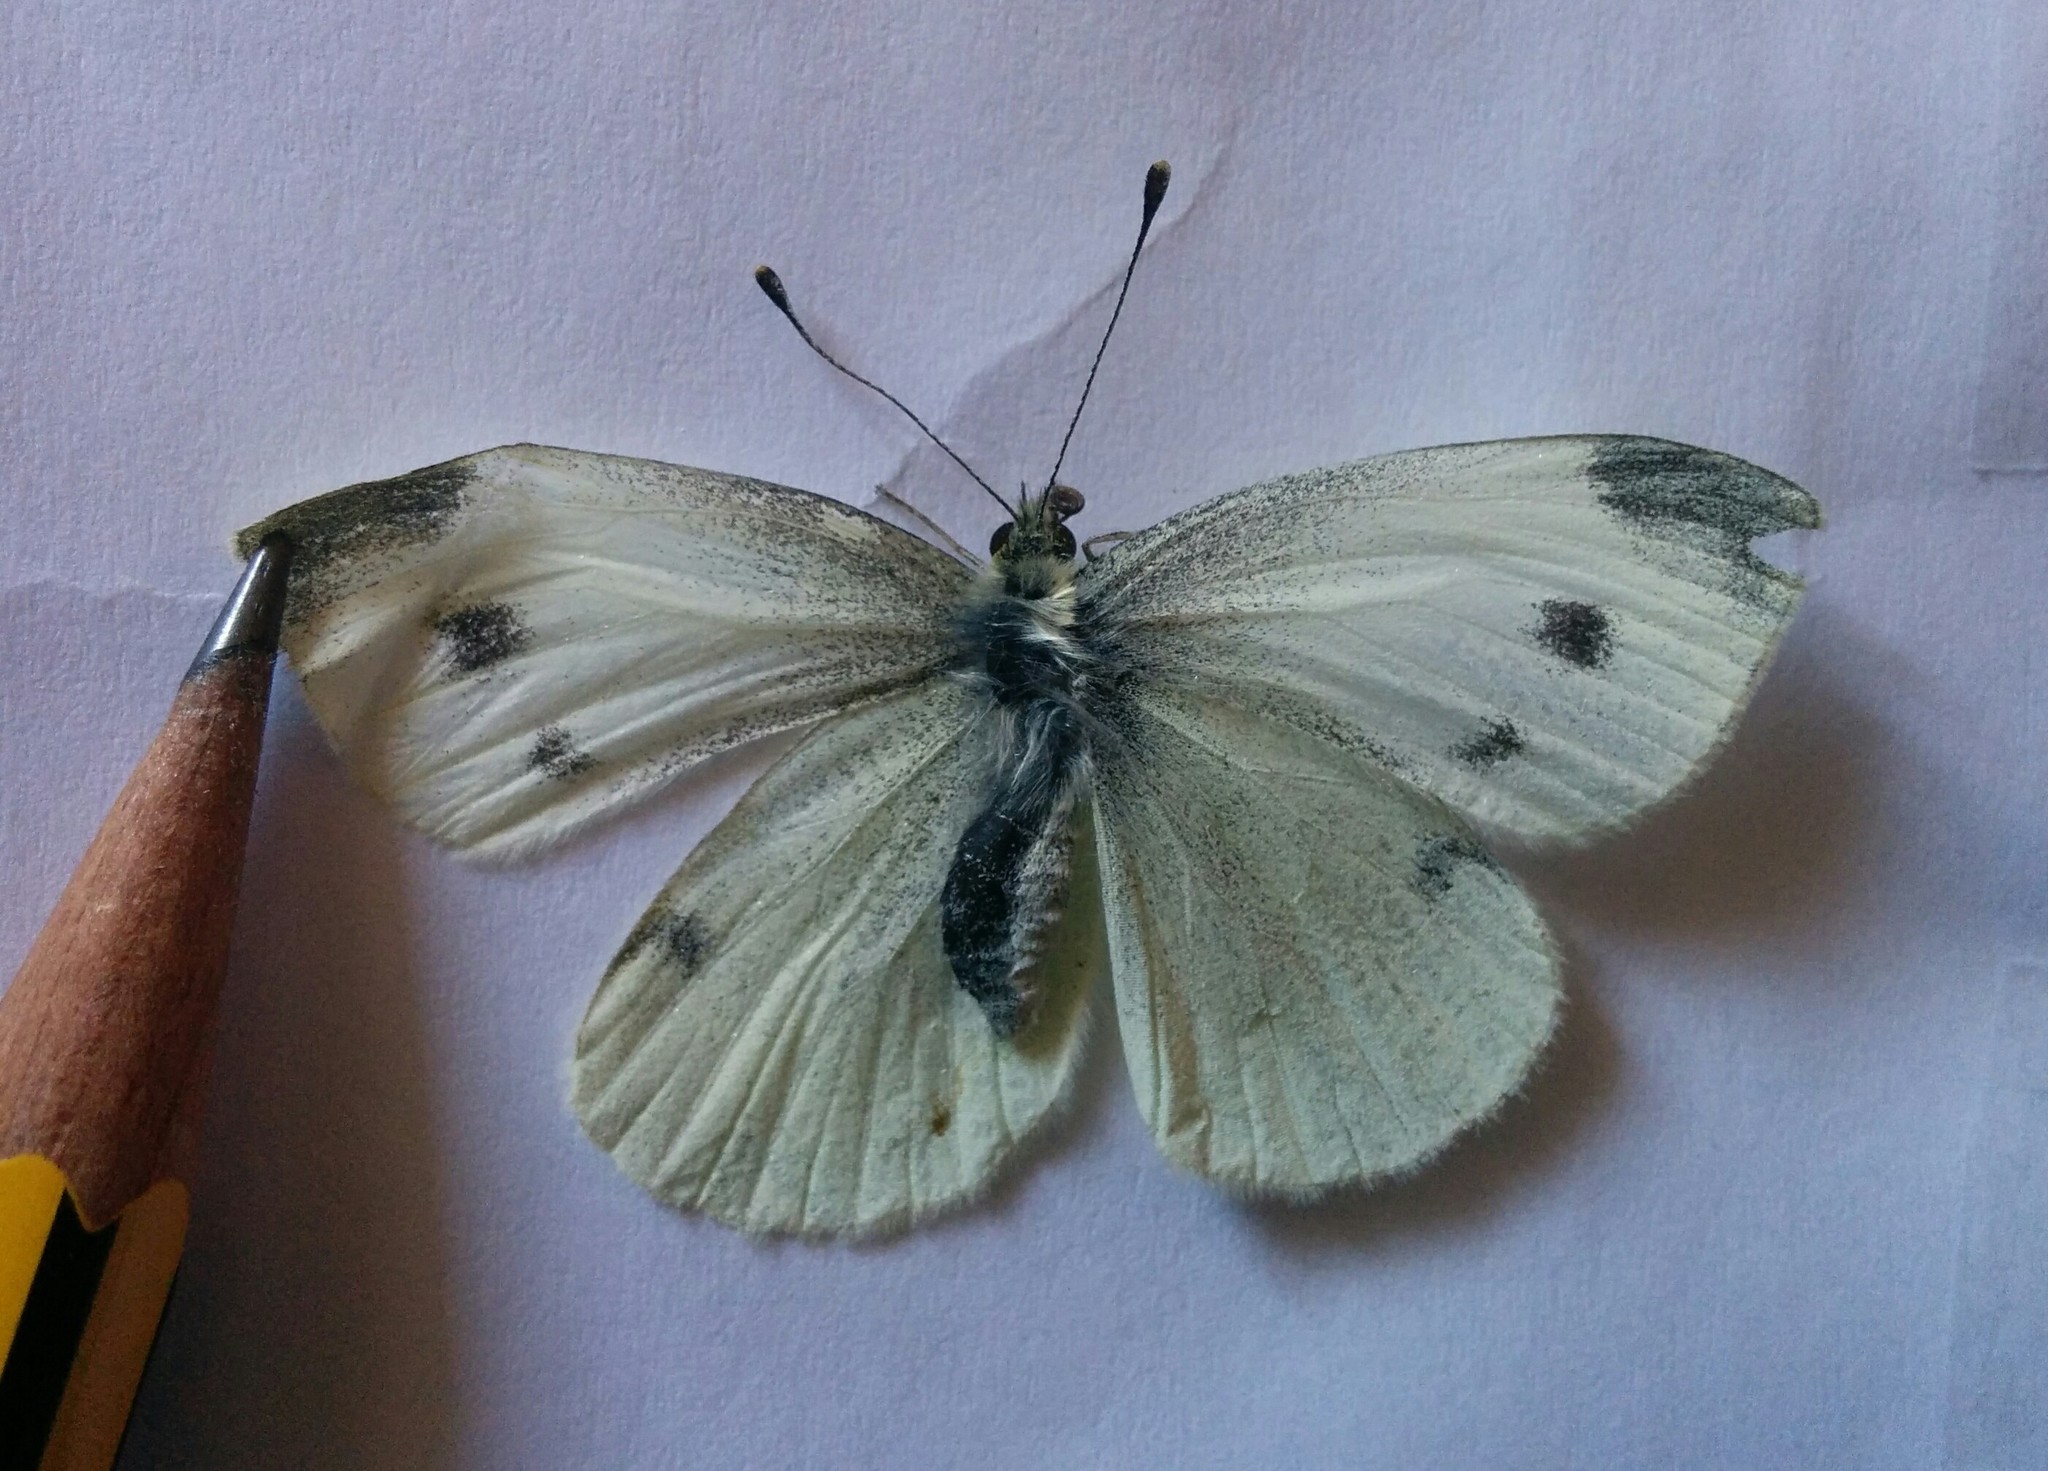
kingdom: Animalia
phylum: Arthropoda
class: Insecta
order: Lepidoptera
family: Pieridae
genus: Pieris
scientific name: Pieris rapae
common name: Small white
